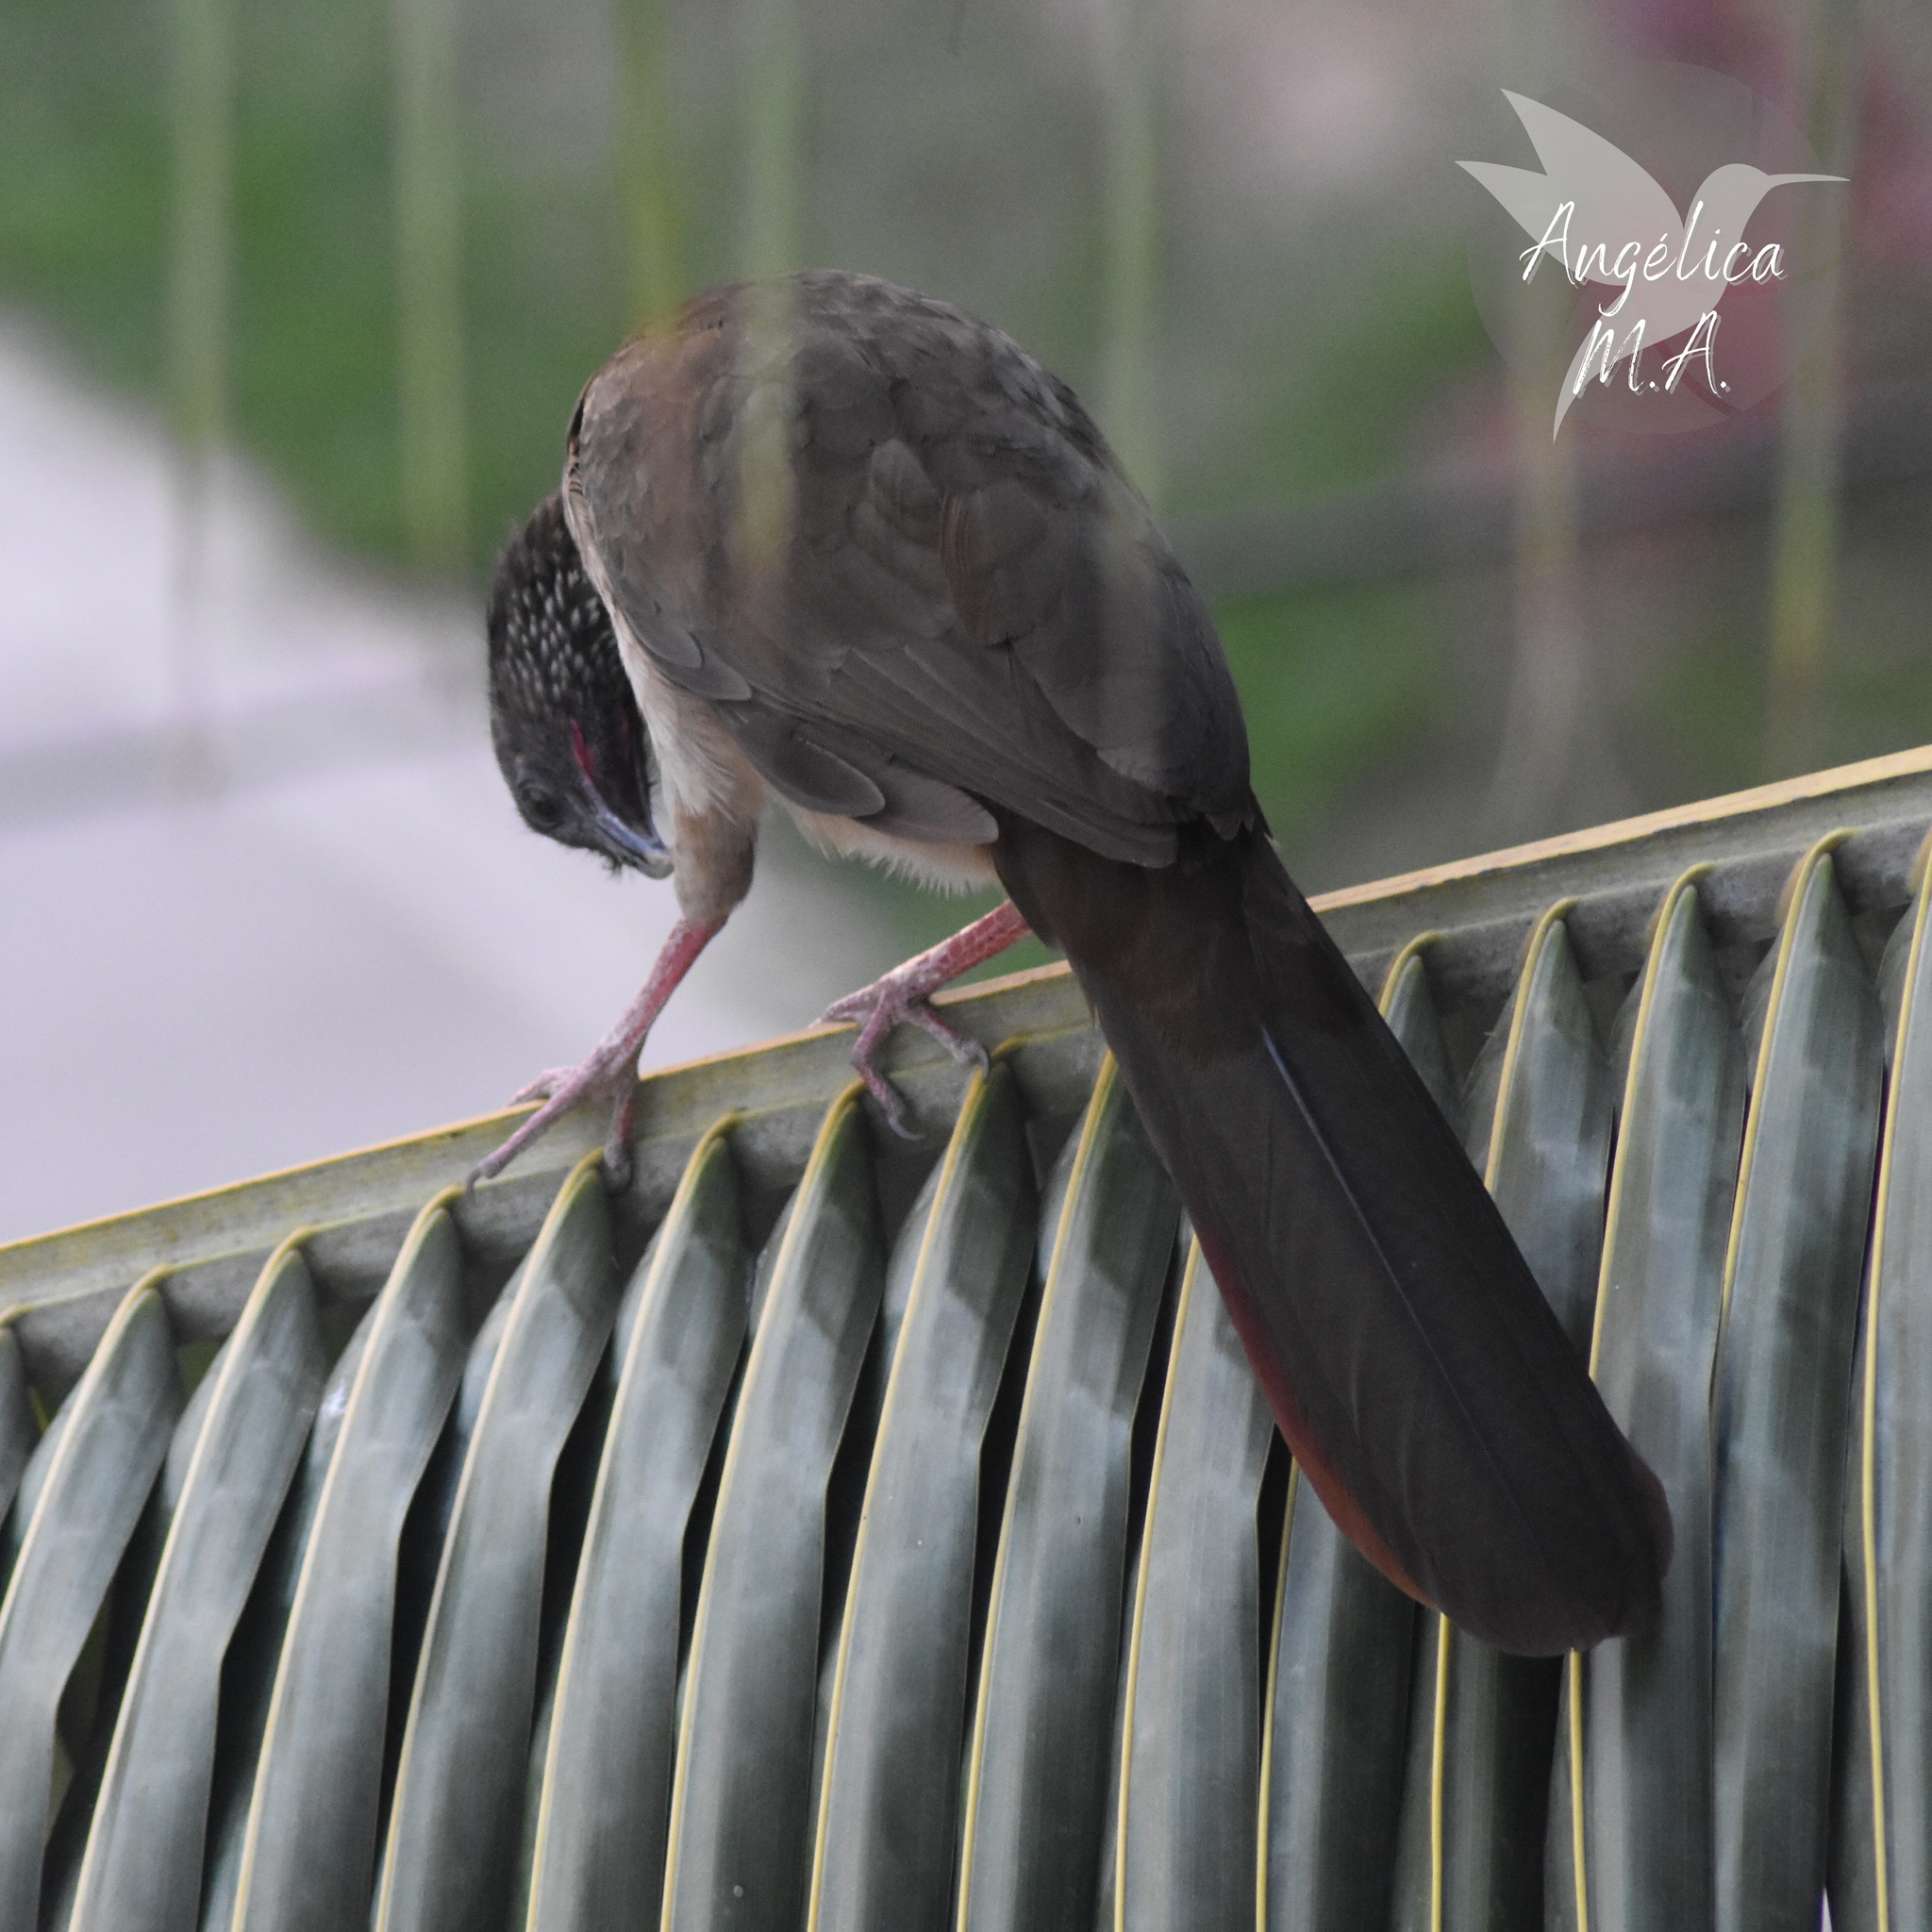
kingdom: Animalia
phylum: Chordata
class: Aves
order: Galliformes
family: Cracidae
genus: Ortalis
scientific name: Ortalis guttata
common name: Speckled chachalaca
